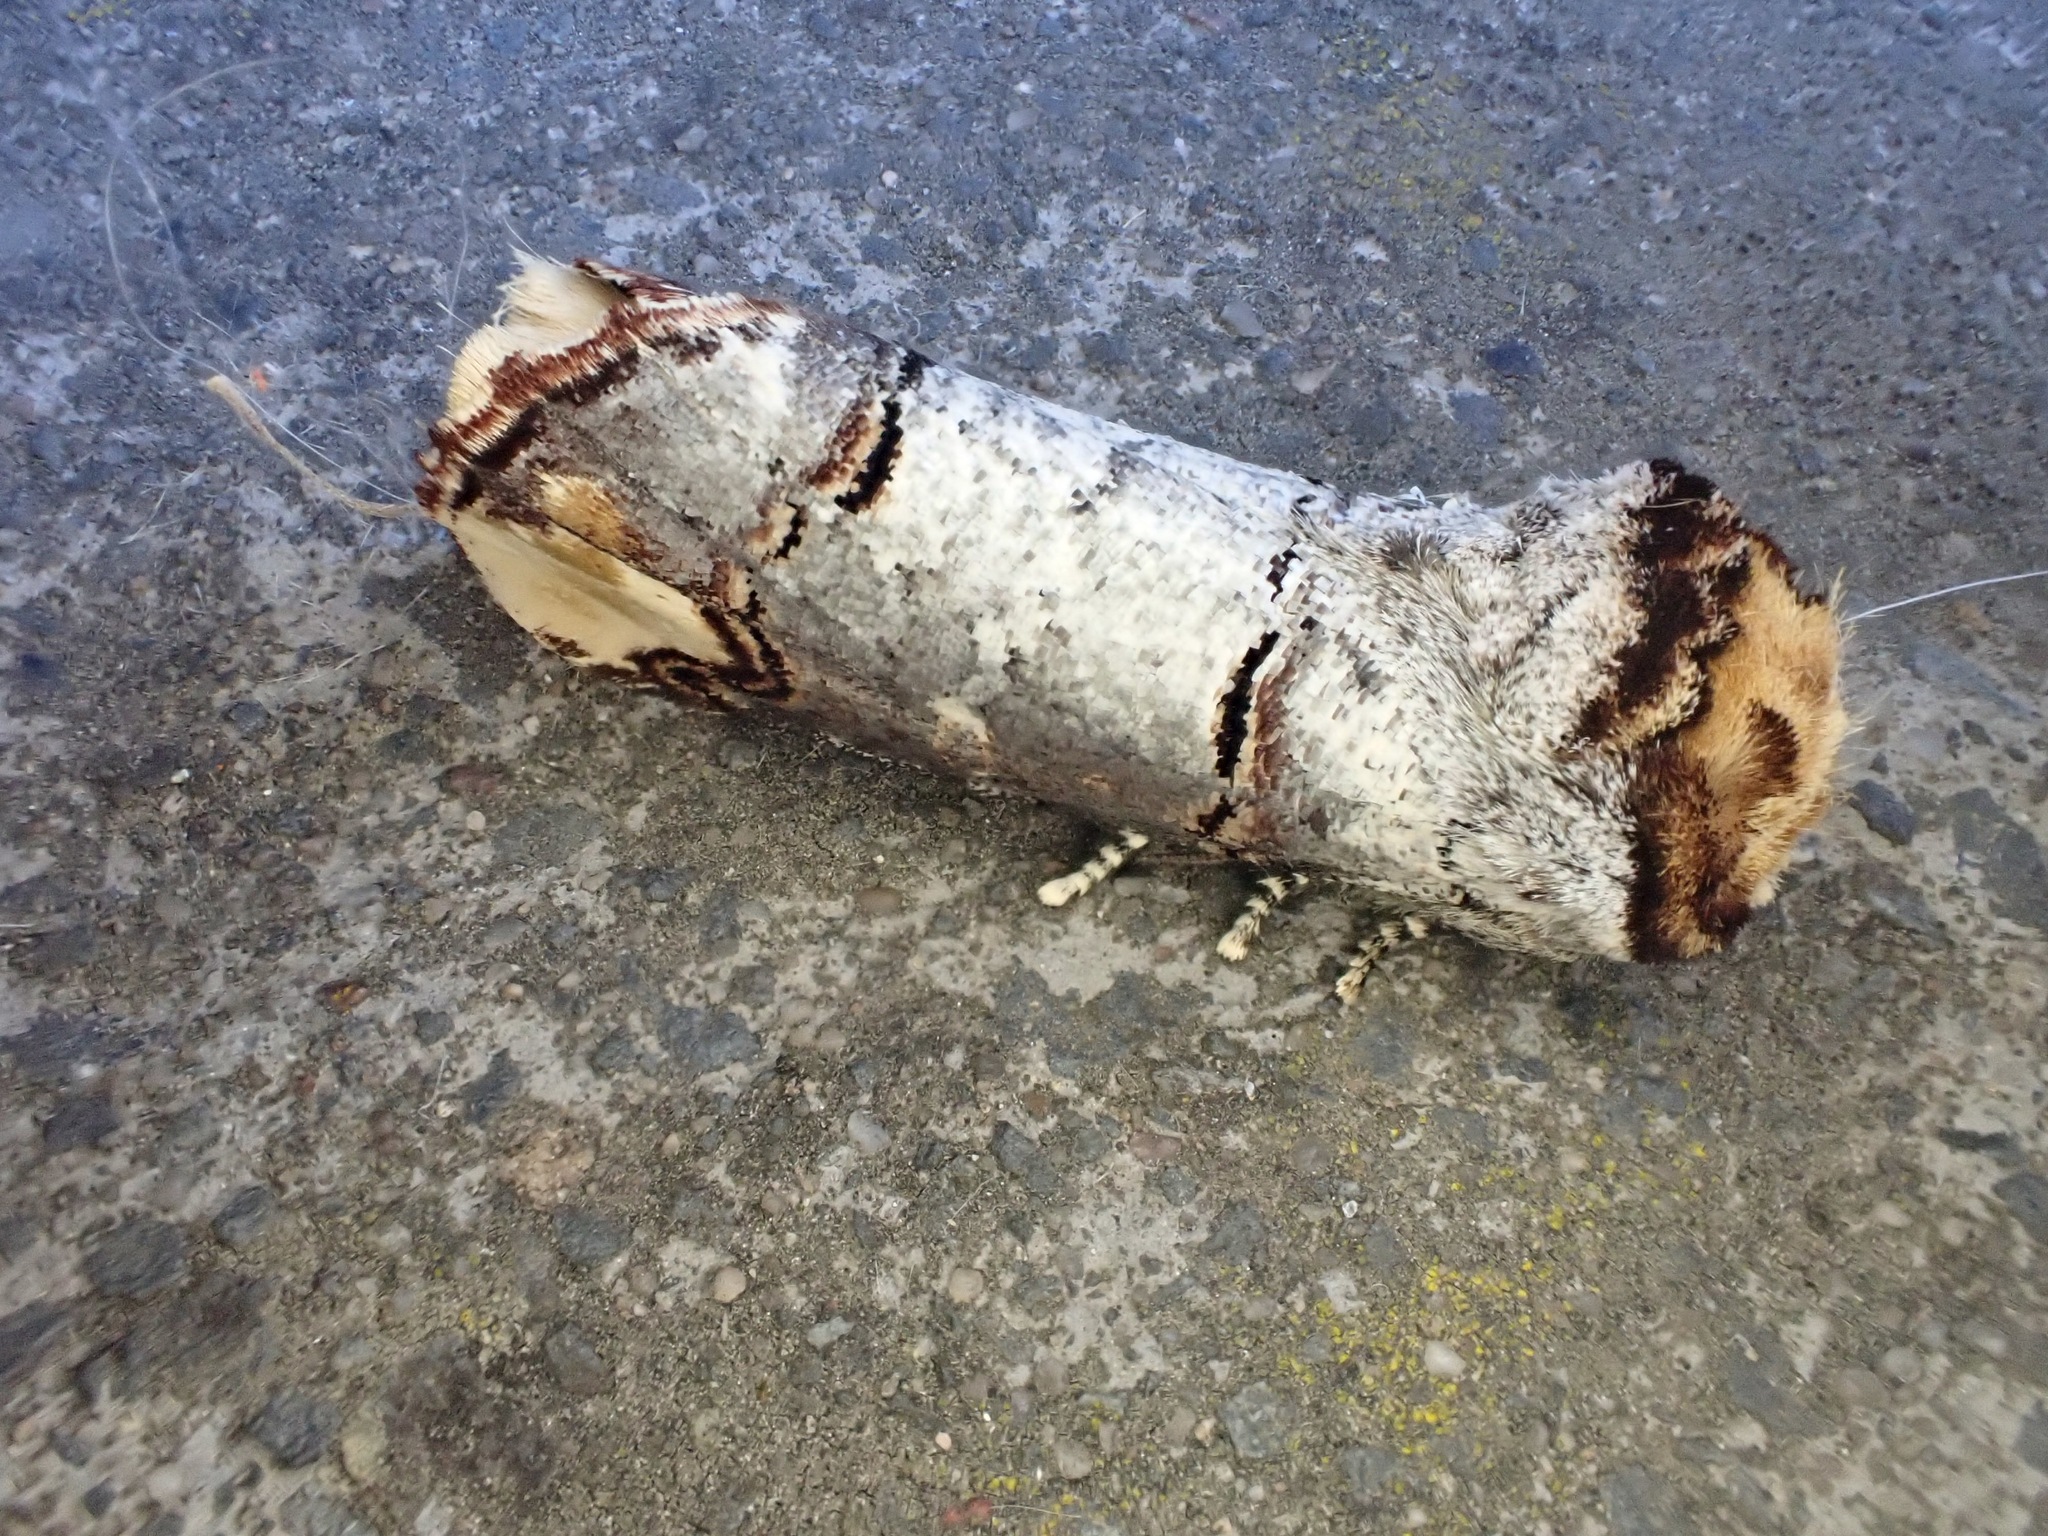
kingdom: Animalia
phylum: Arthropoda
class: Insecta
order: Lepidoptera
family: Notodontidae
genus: Phalera
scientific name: Phalera bucephala
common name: Buff-tip
